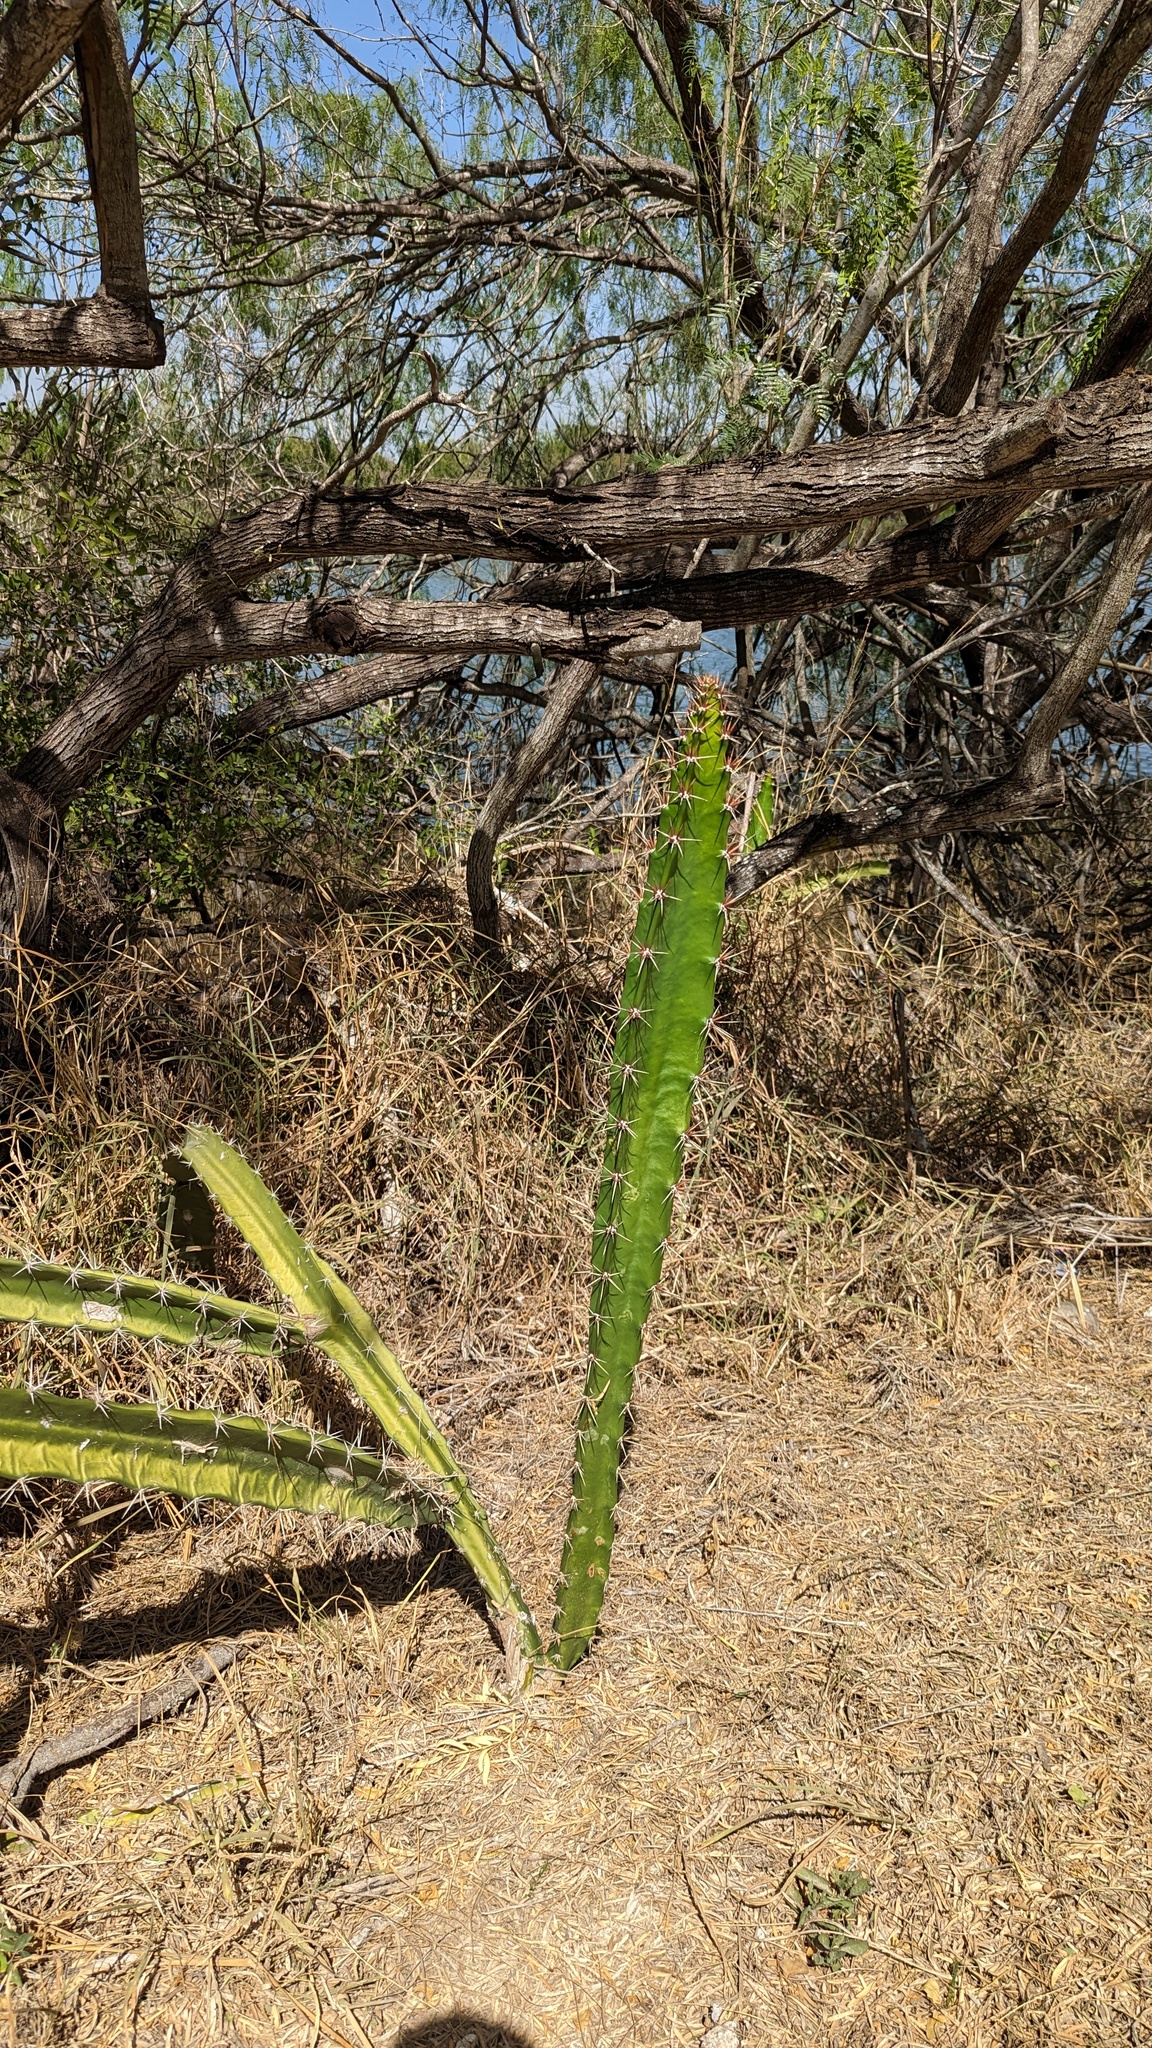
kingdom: Plantae
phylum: Tracheophyta
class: Magnoliopsida
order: Caryophyllales
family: Cactaceae
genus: Acanthocereus
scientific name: Acanthocereus tetragonus
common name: Triangle cactus
